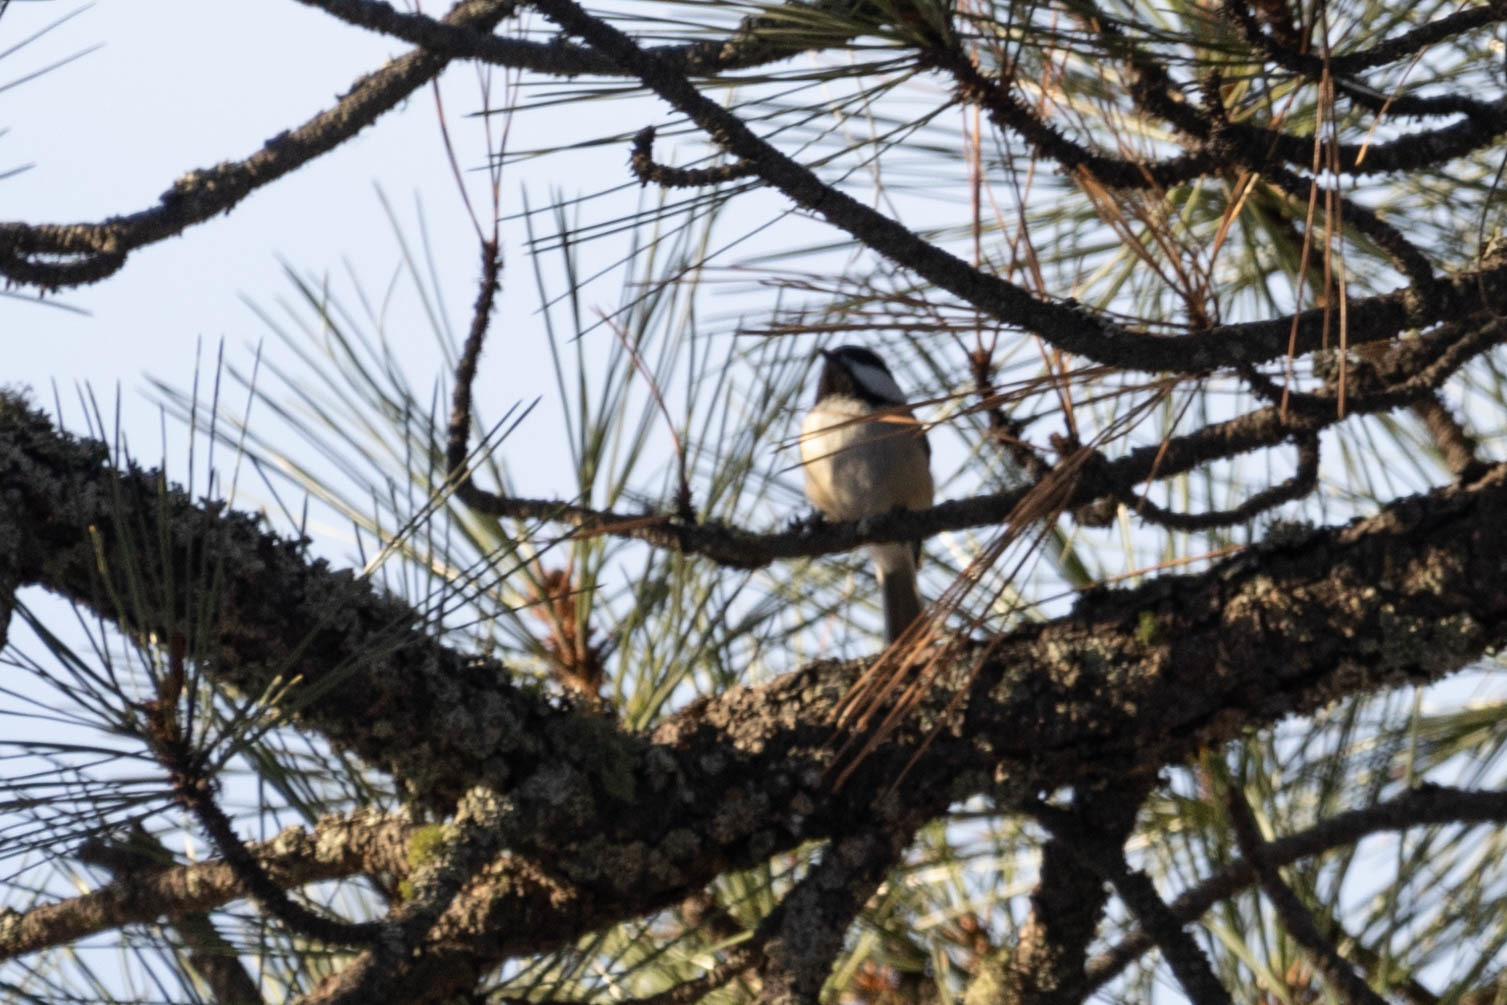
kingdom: Animalia
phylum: Chordata
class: Aves
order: Passeriformes
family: Paridae
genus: Poecile
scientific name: Poecile atricapillus
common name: Black-capped chickadee
